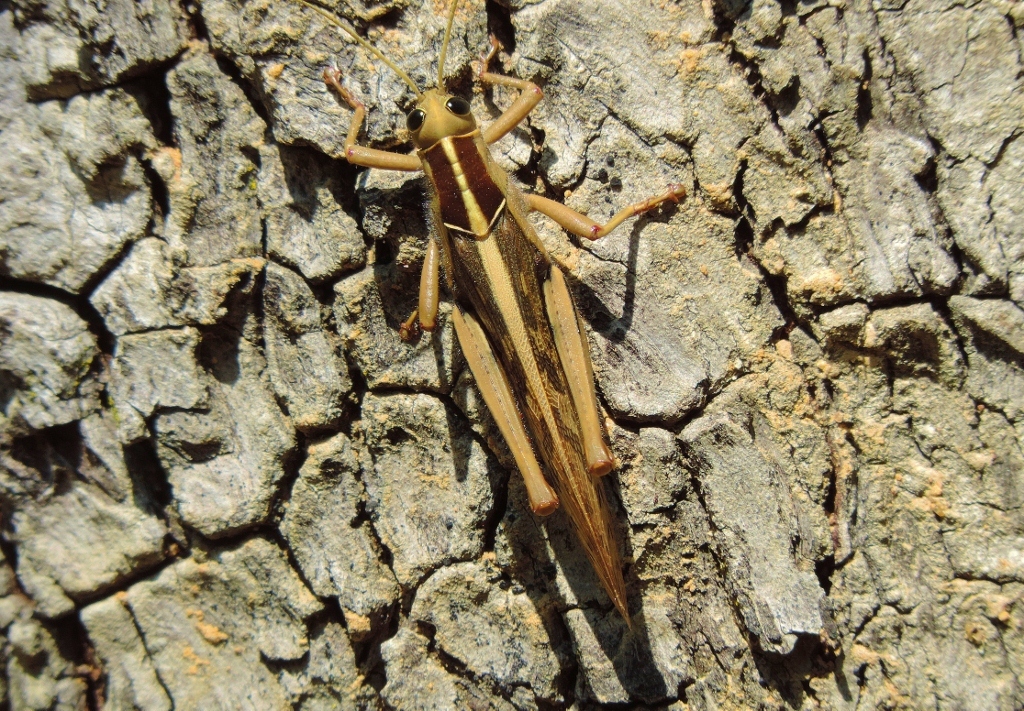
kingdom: Animalia
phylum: Arthropoda
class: Insecta
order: Orthoptera
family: Acrididae
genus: Acanthacris
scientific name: Acanthacris ruficornis
